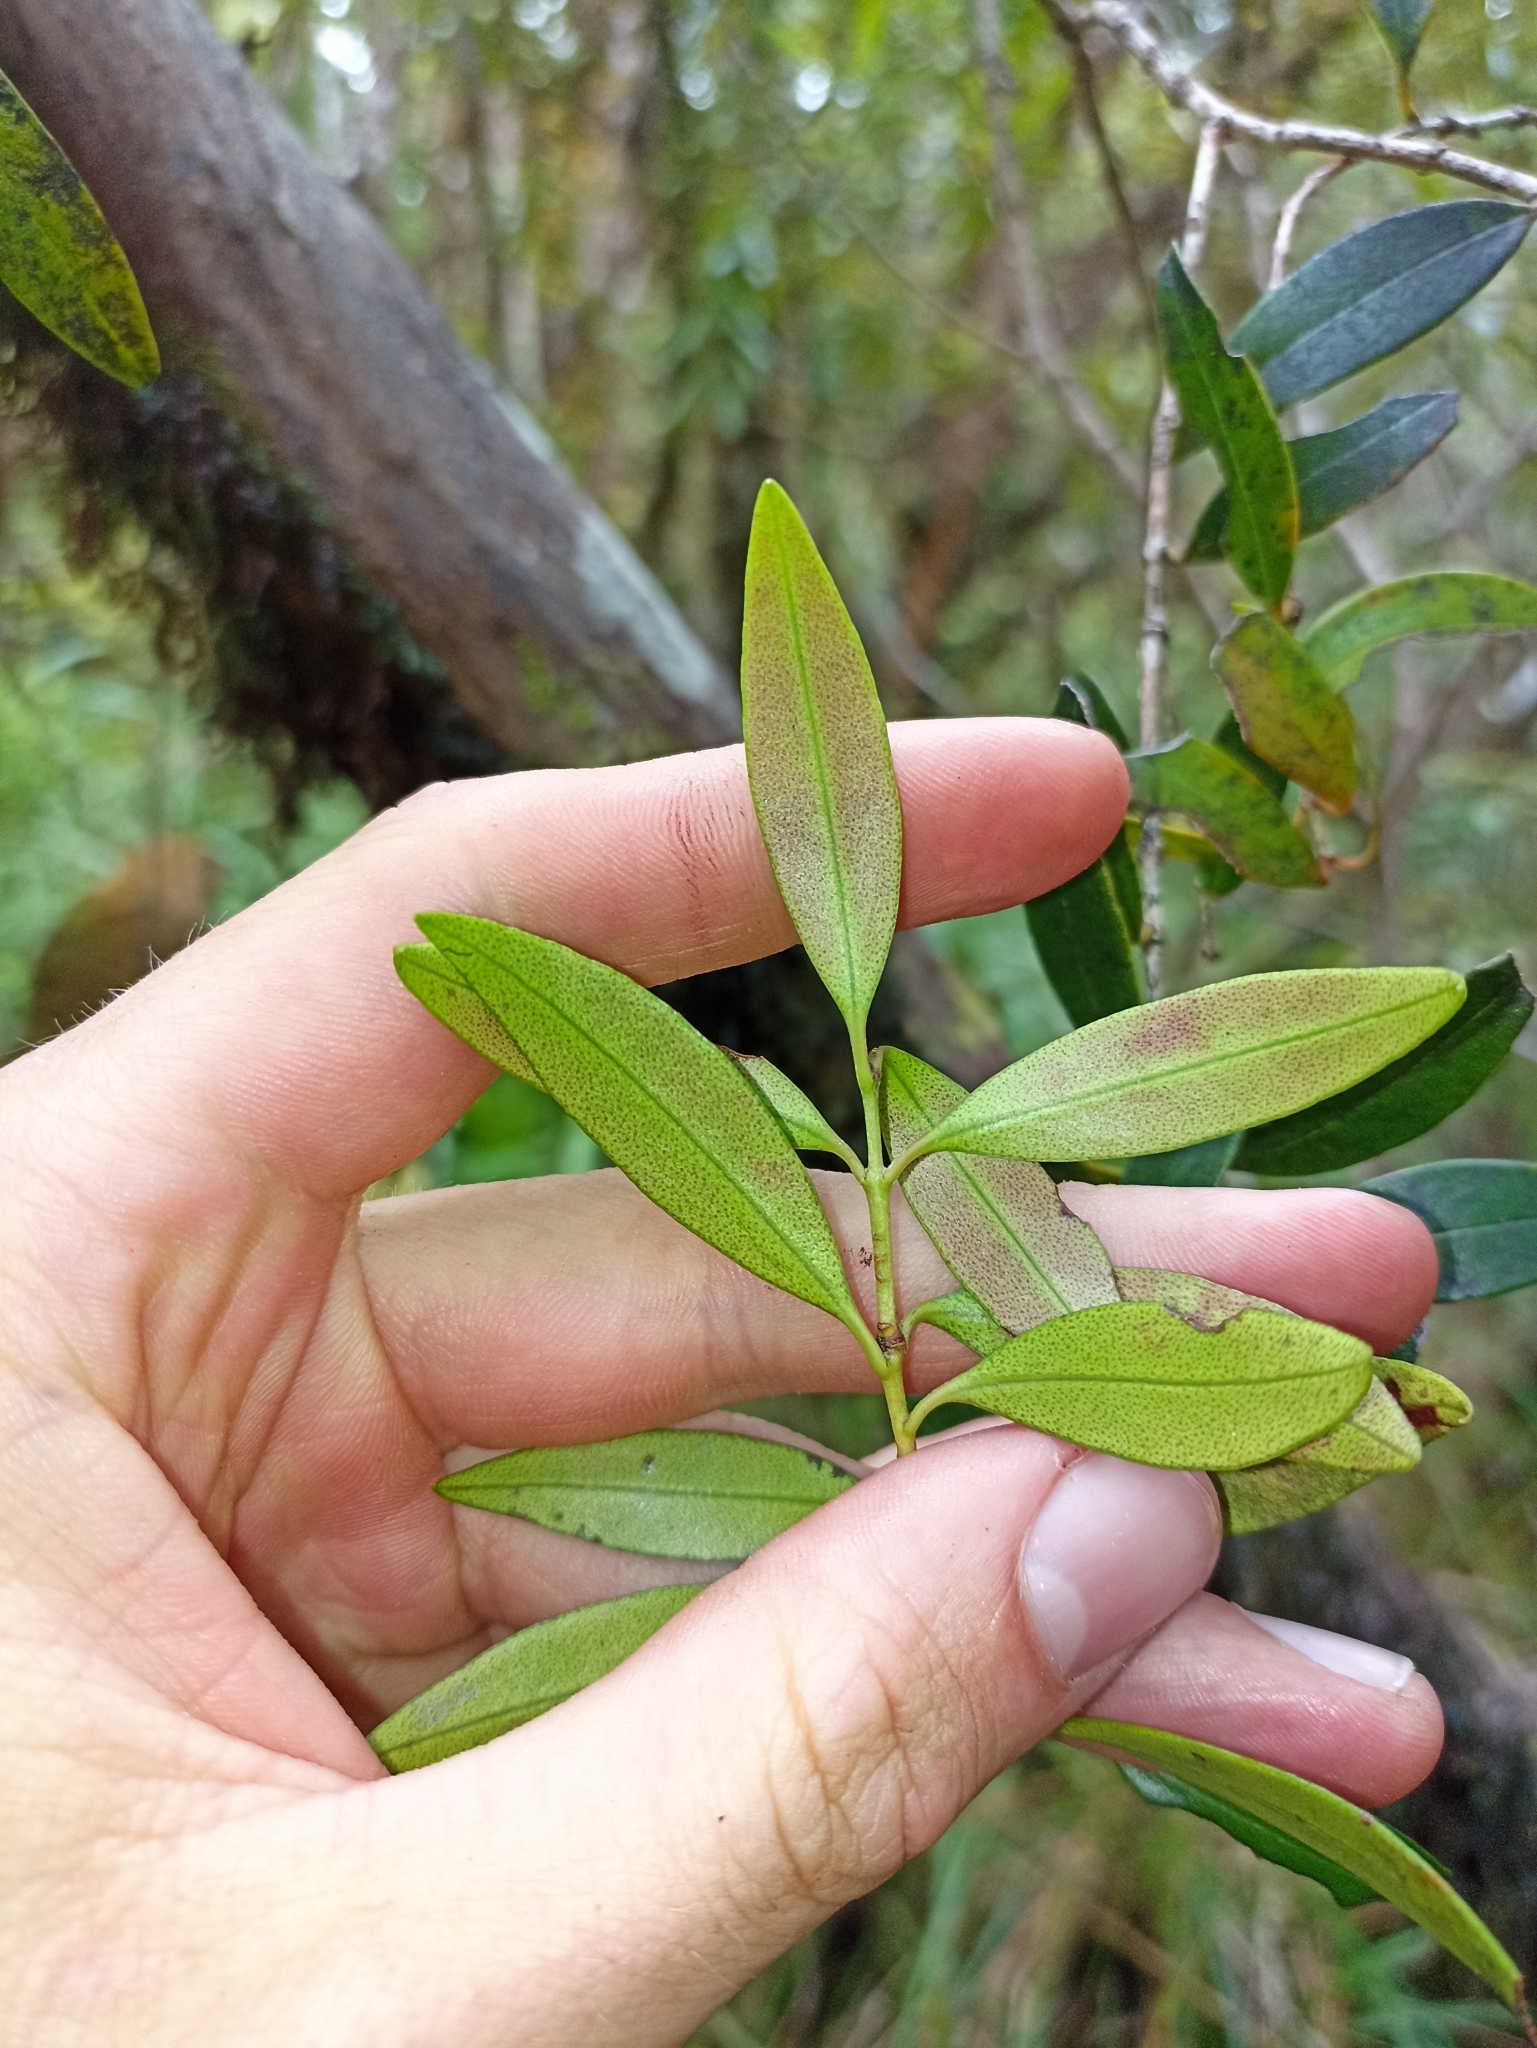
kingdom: Plantae
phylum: Tracheophyta
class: Magnoliopsida
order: Myrtales
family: Myrtaceae
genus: Metrosideros
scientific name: Metrosideros umbellata
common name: Southern rata
